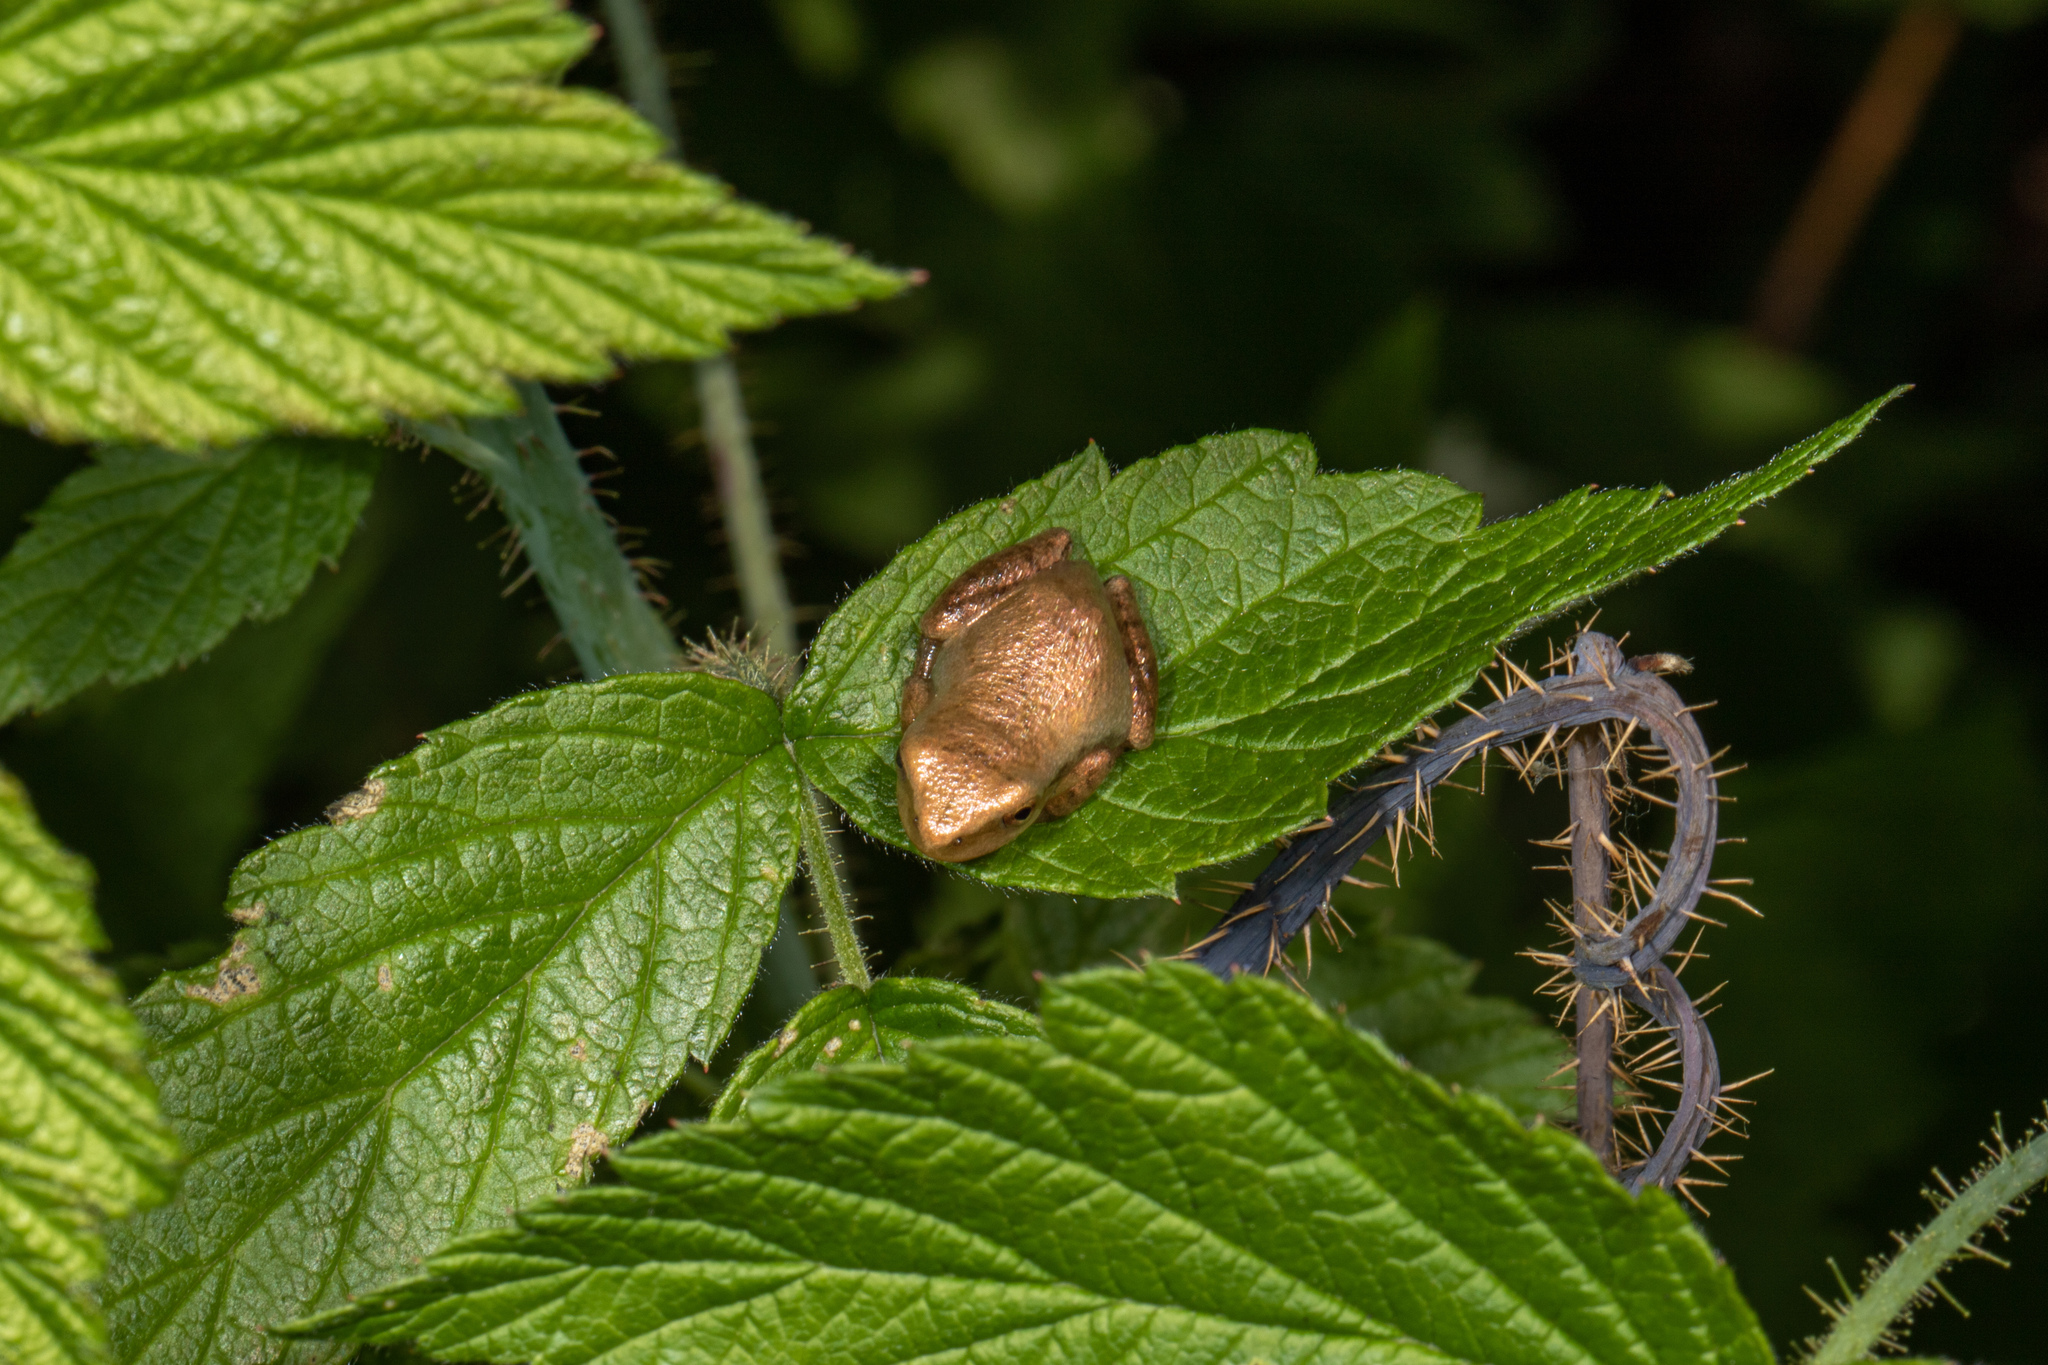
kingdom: Animalia
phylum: Chordata
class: Amphibia
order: Anura
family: Hylidae
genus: Pseudacris
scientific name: Pseudacris crucifer
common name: Spring peeper
